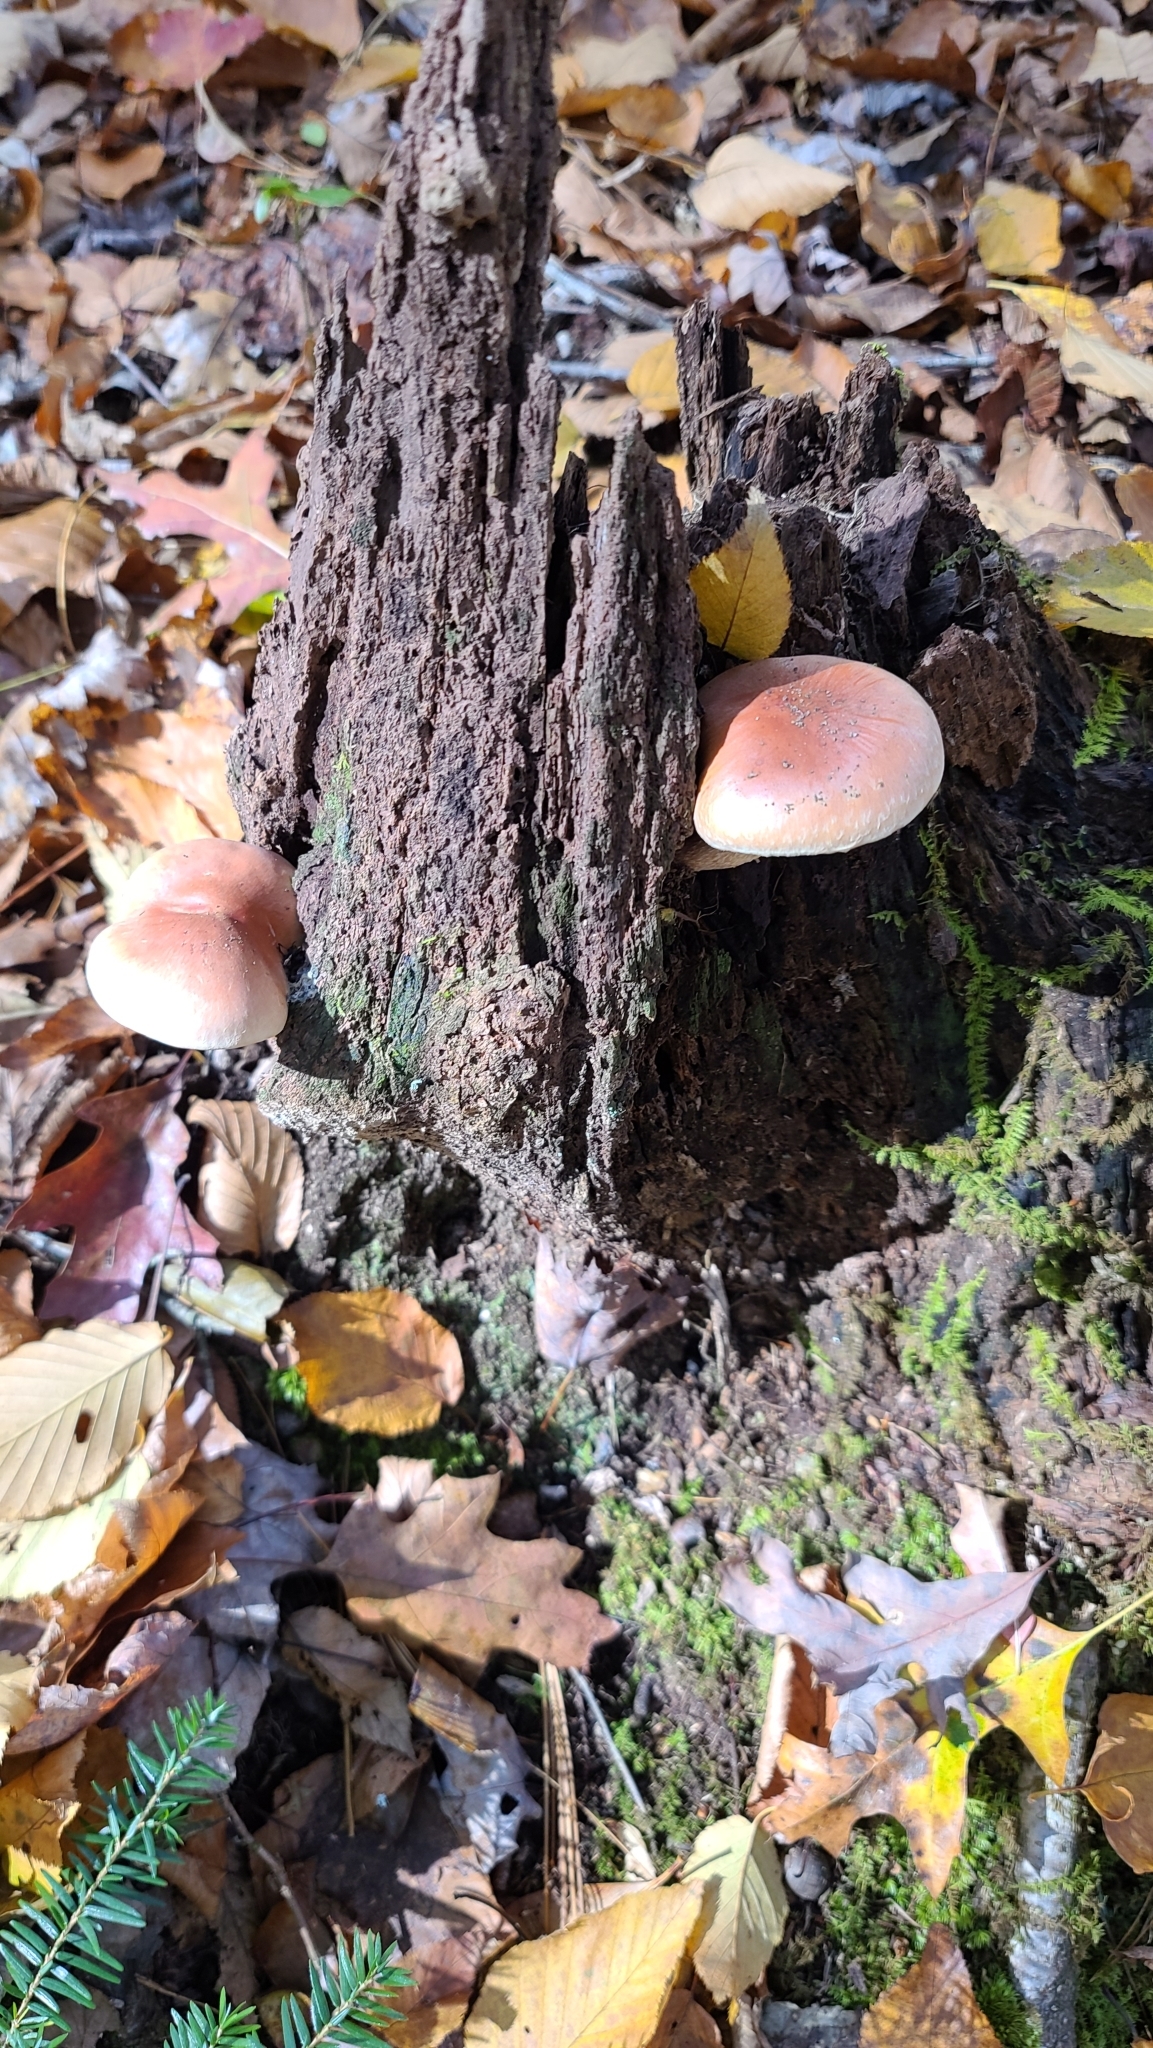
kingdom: Fungi
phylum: Basidiomycota
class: Agaricomycetes
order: Agaricales
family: Strophariaceae
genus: Hypholoma
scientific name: Hypholoma lateritium
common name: Brick caps
